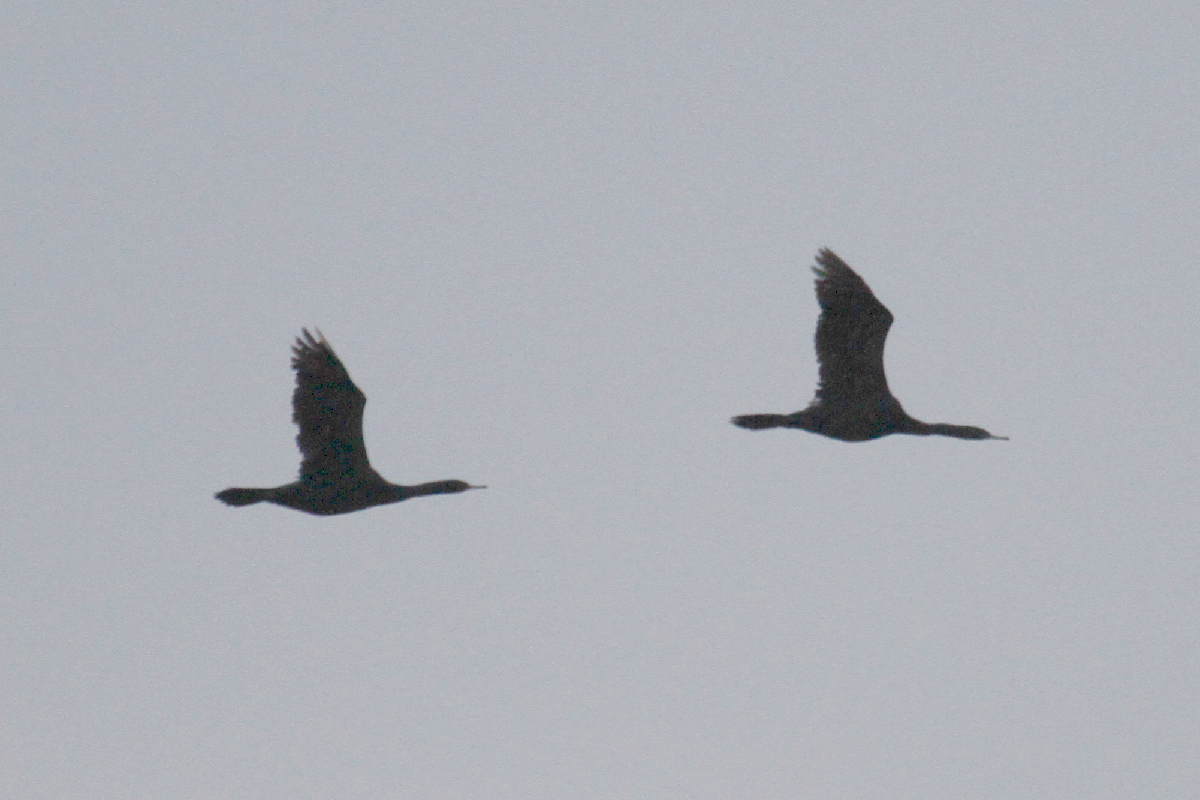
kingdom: Animalia
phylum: Chordata
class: Aves
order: Suliformes
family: Phalacrocoracidae
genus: Phalacrocorax
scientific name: Phalacrocorax pelagicus
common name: Pelagic cormorant
